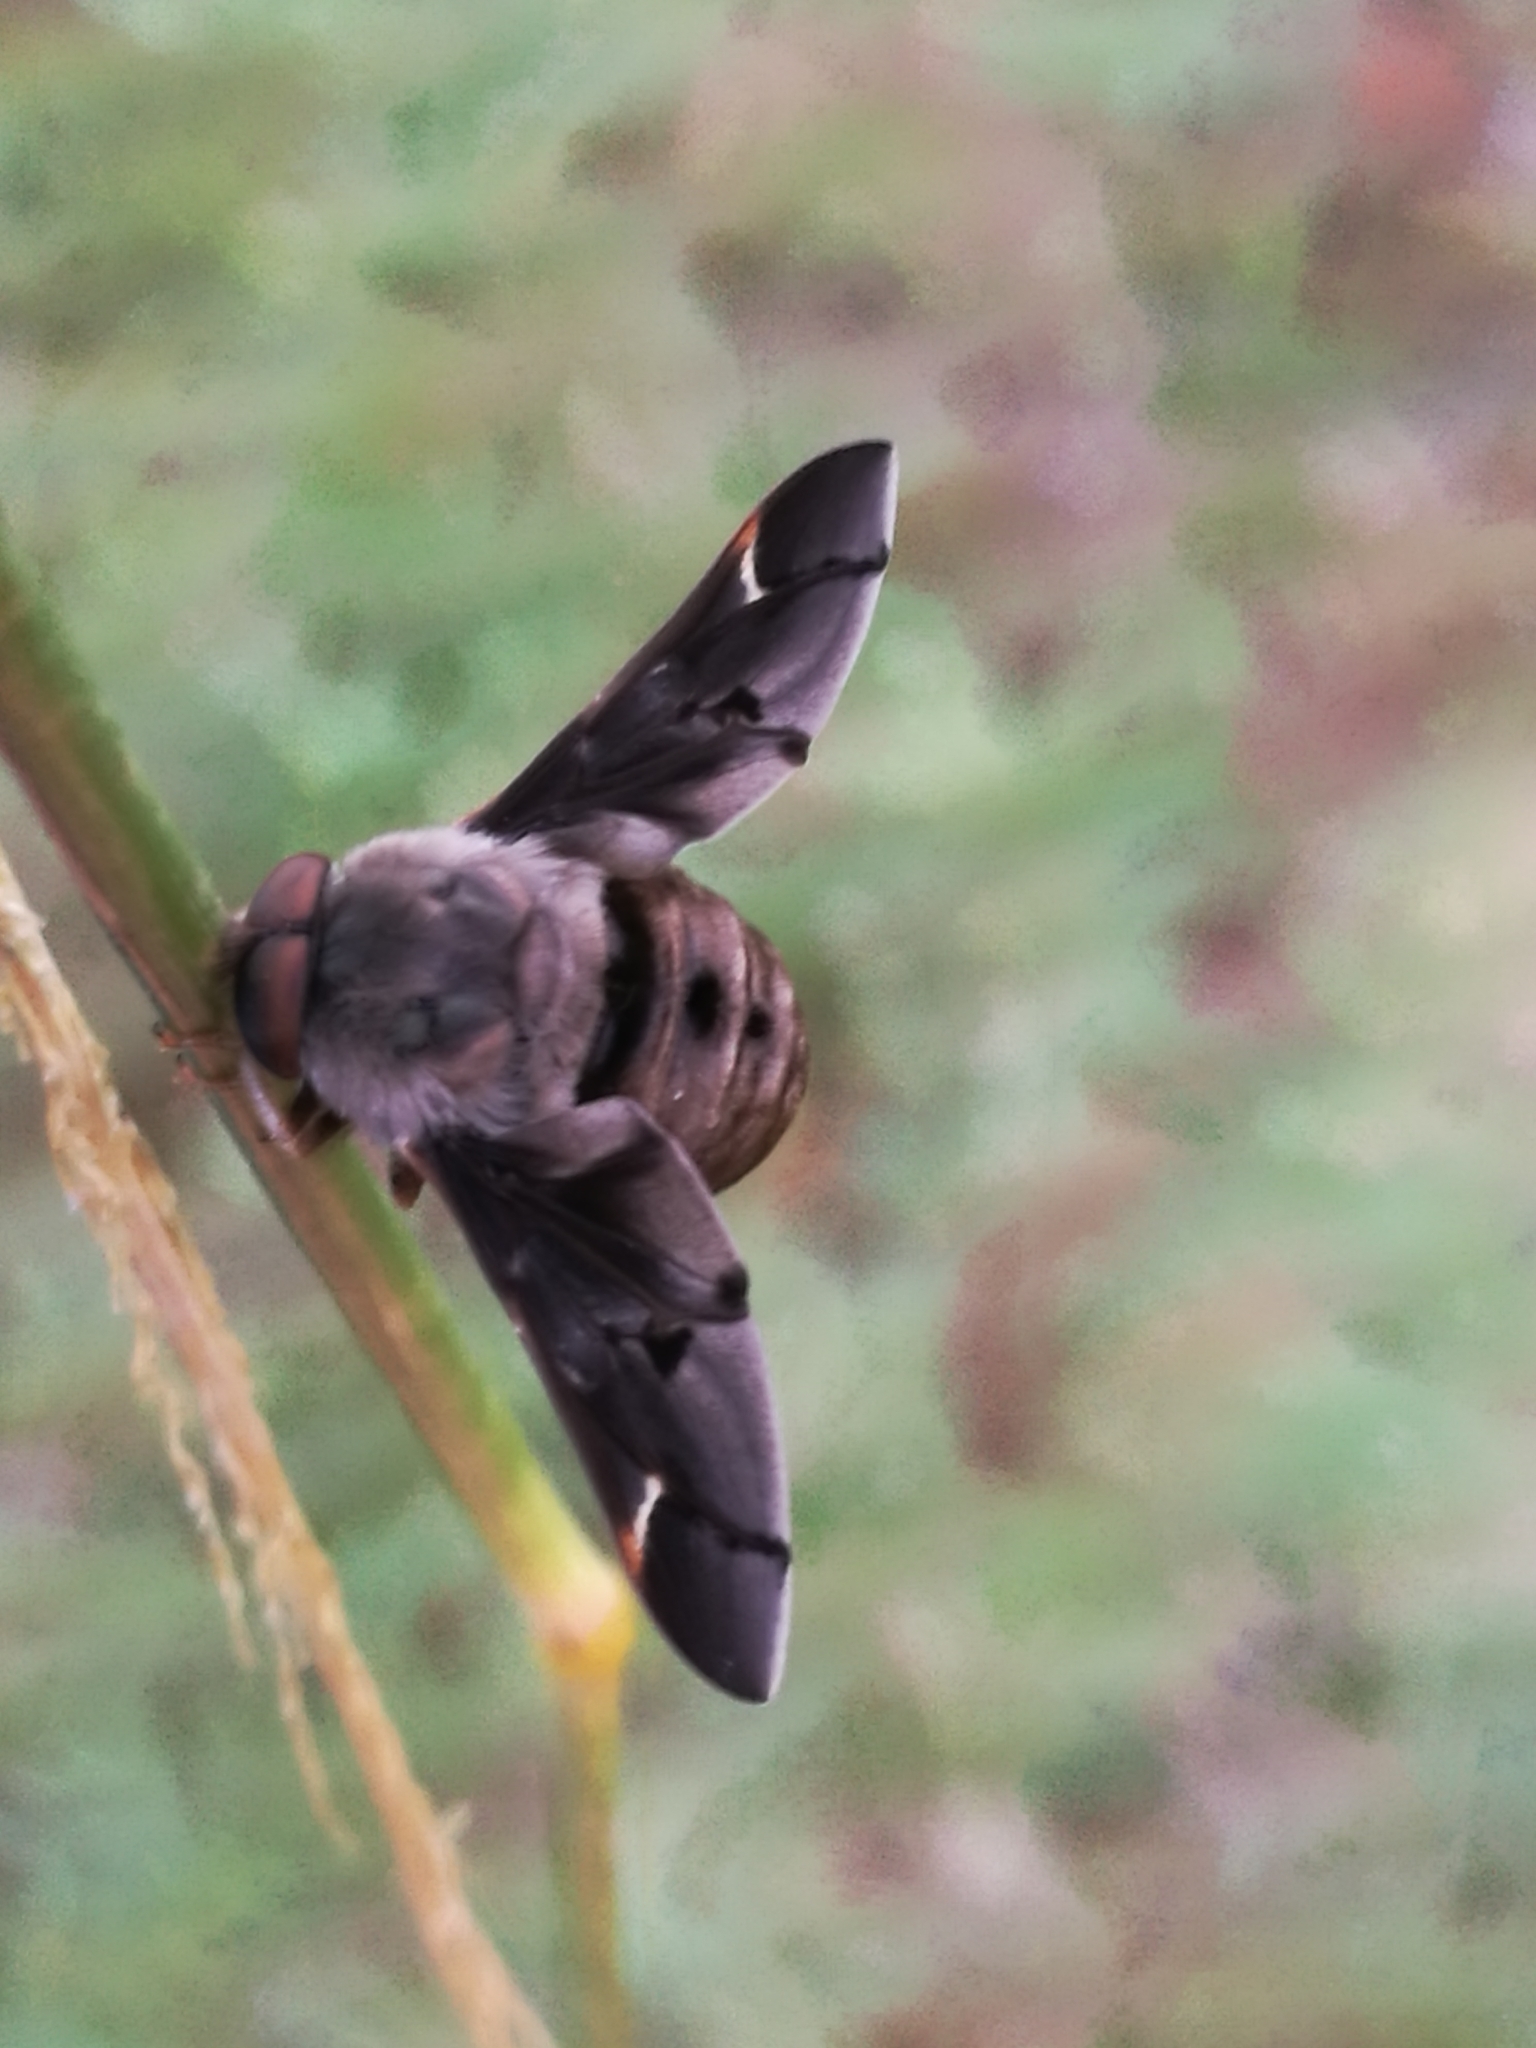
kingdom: Animalia
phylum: Arthropoda
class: Insecta
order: Diptera
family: Nemestrinidae
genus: Atriadops
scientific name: Atriadops vespertilio
